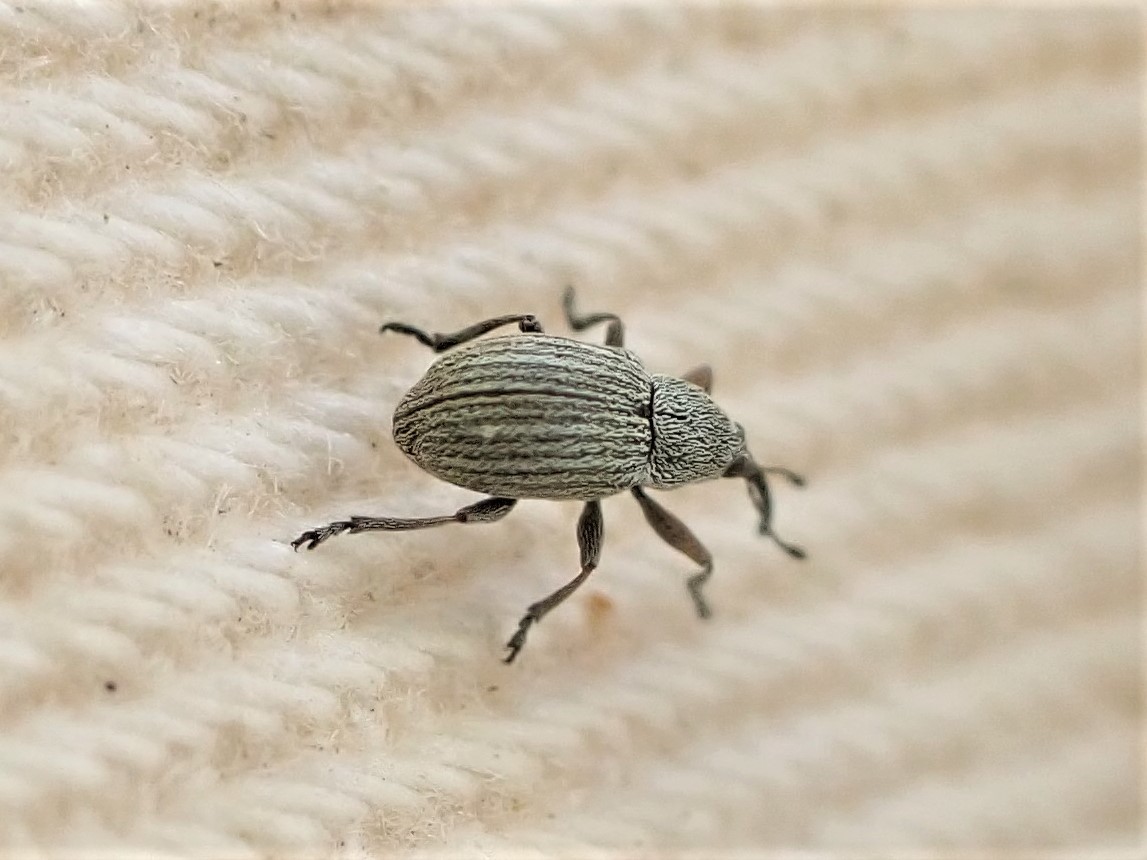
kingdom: Animalia
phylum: Arthropoda
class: Insecta
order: Coleoptera
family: Brentidae
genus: Exapion
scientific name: Exapion ulicis
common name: Gorse seed weevil
